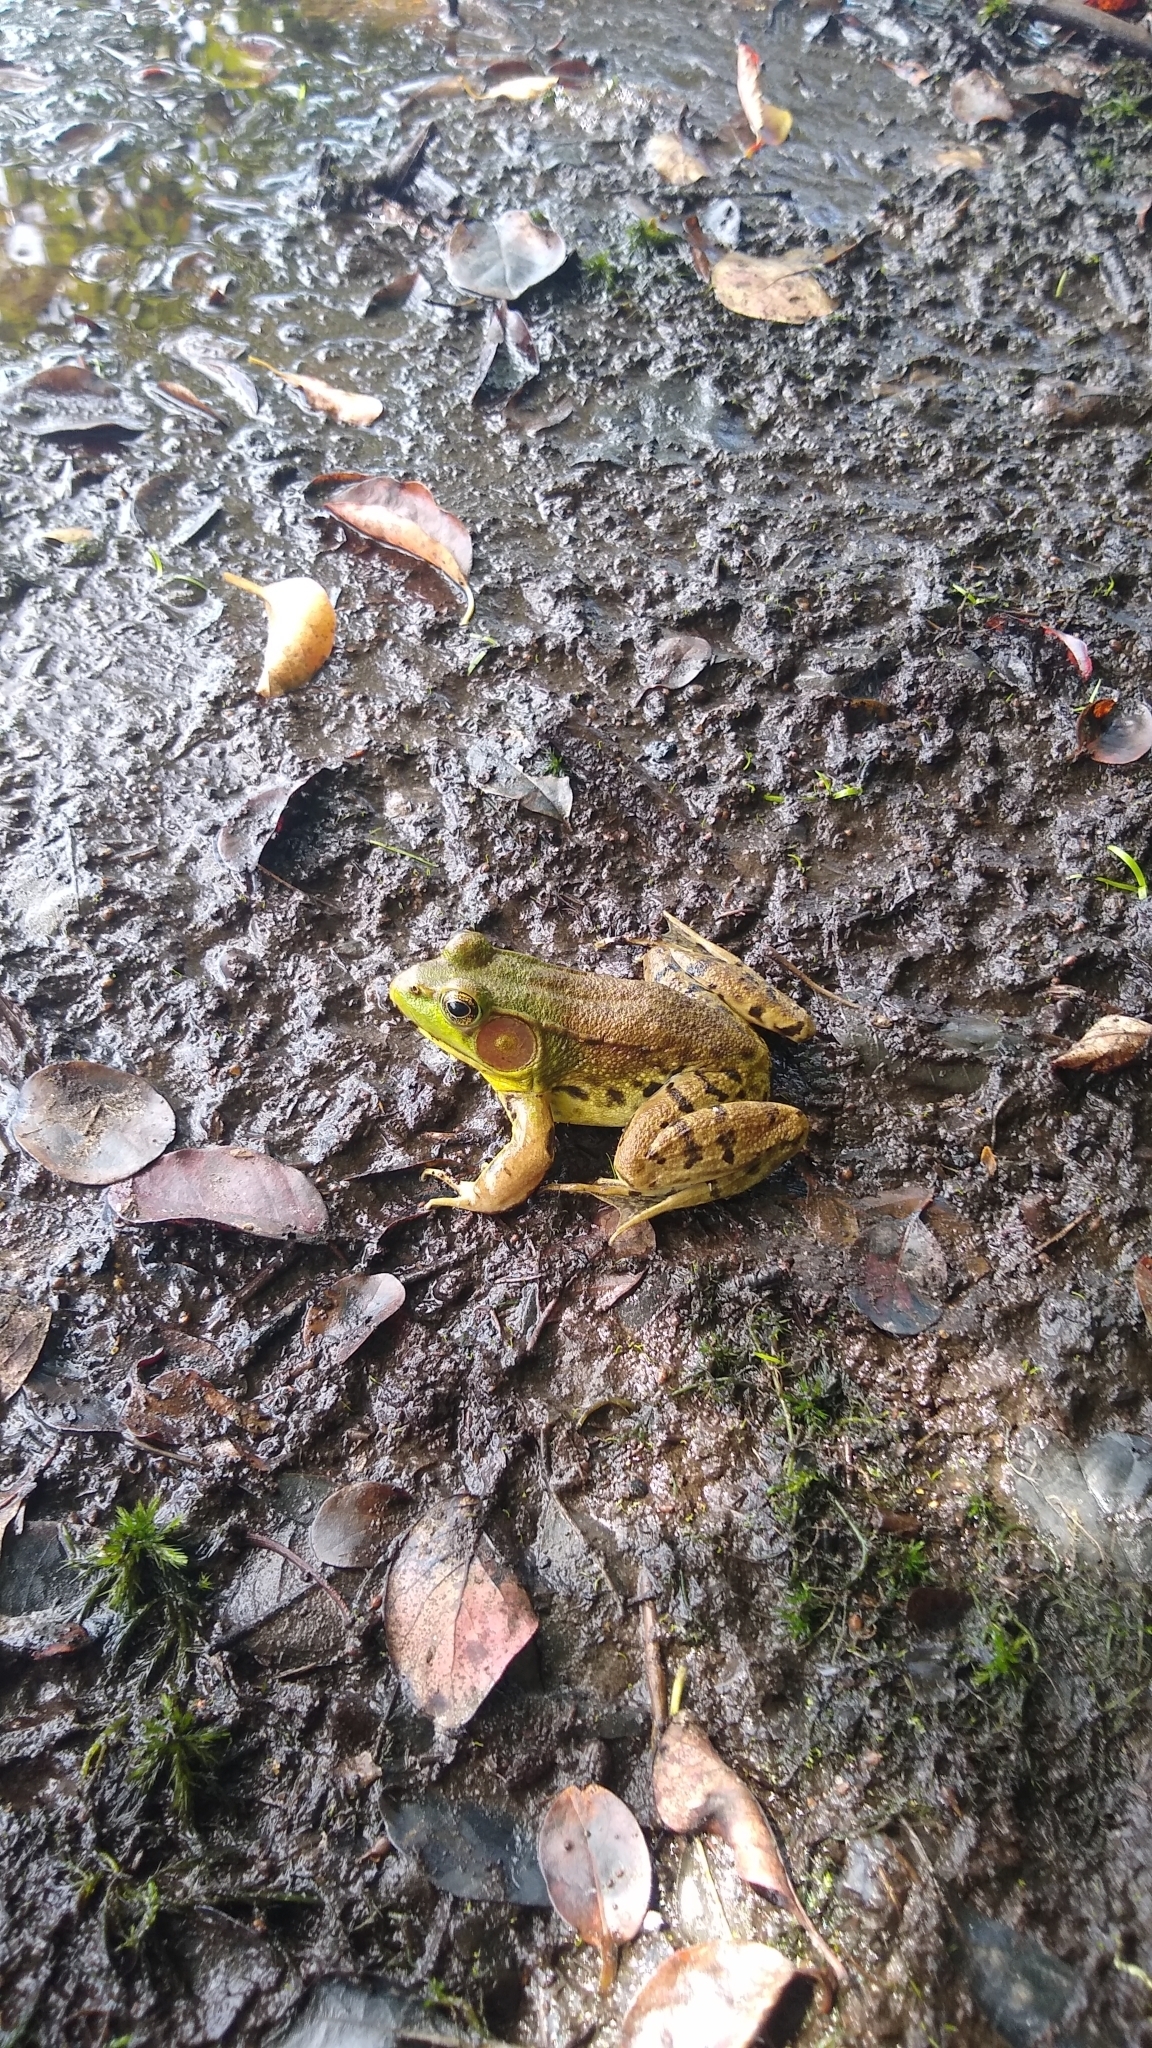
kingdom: Animalia
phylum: Chordata
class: Amphibia
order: Anura
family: Ranidae
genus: Lithobates
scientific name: Lithobates clamitans
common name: Green frog
